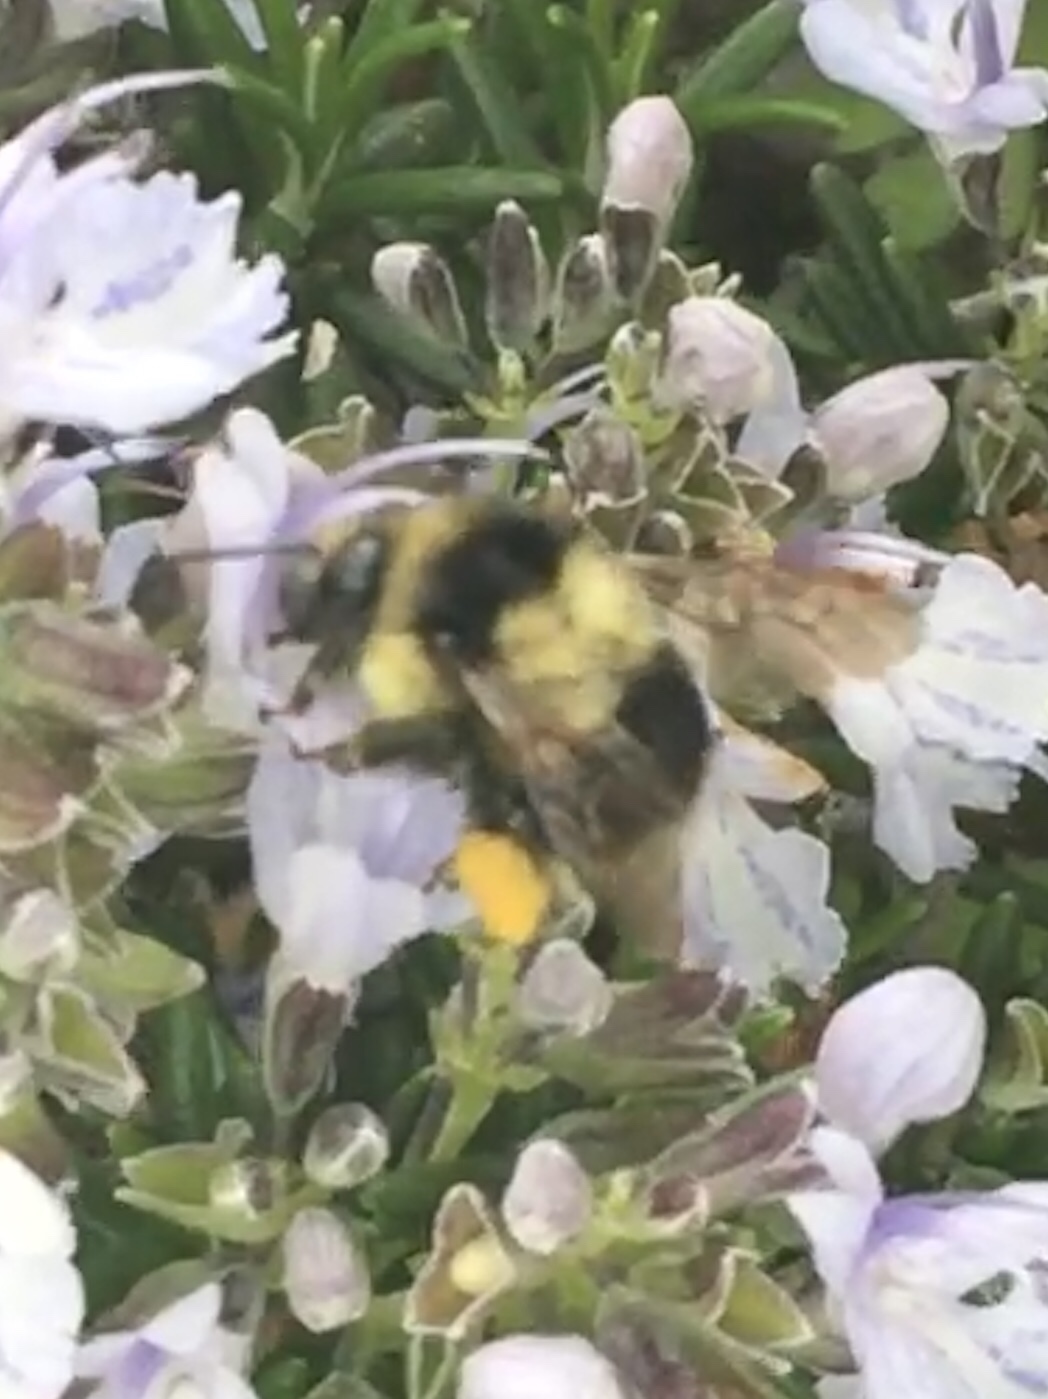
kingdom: Animalia
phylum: Arthropoda
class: Insecta
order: Hymenoptera
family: Apidae
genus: Bombus
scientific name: Bombus melanopygus
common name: Black tail bumble bee
